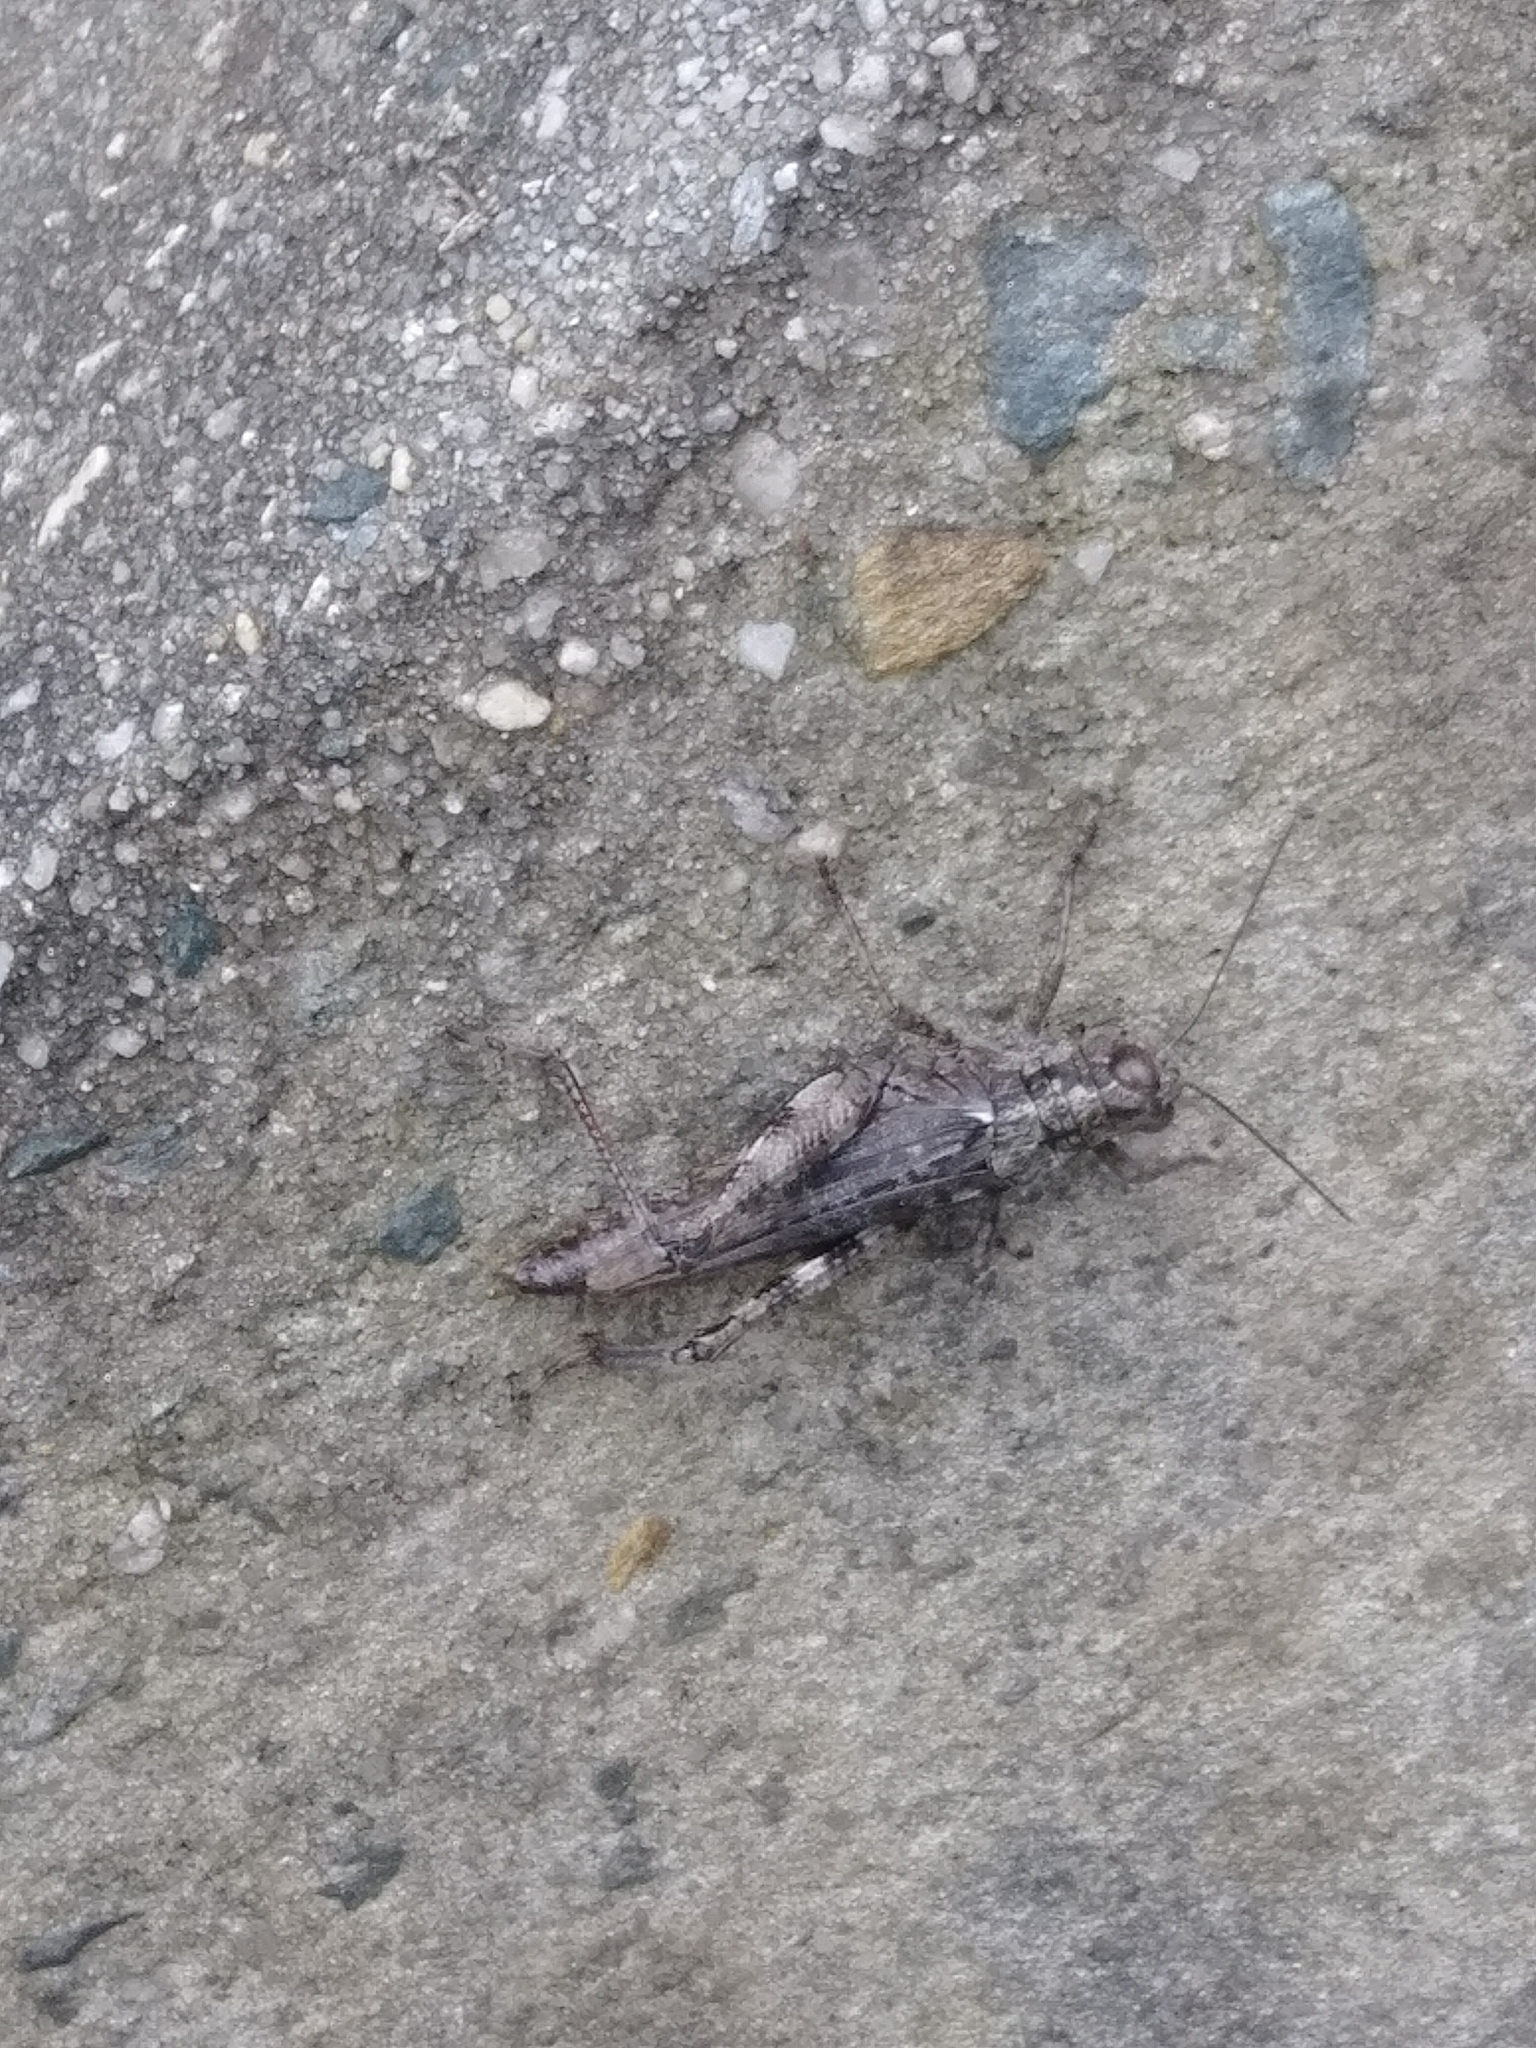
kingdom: Animalia
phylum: Arthropoda
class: Insecta
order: Orthoptera
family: Acrididae
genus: Melanoplus
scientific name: Melanoplus punctulatus
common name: Pine-tree spur-throat grasshopper
